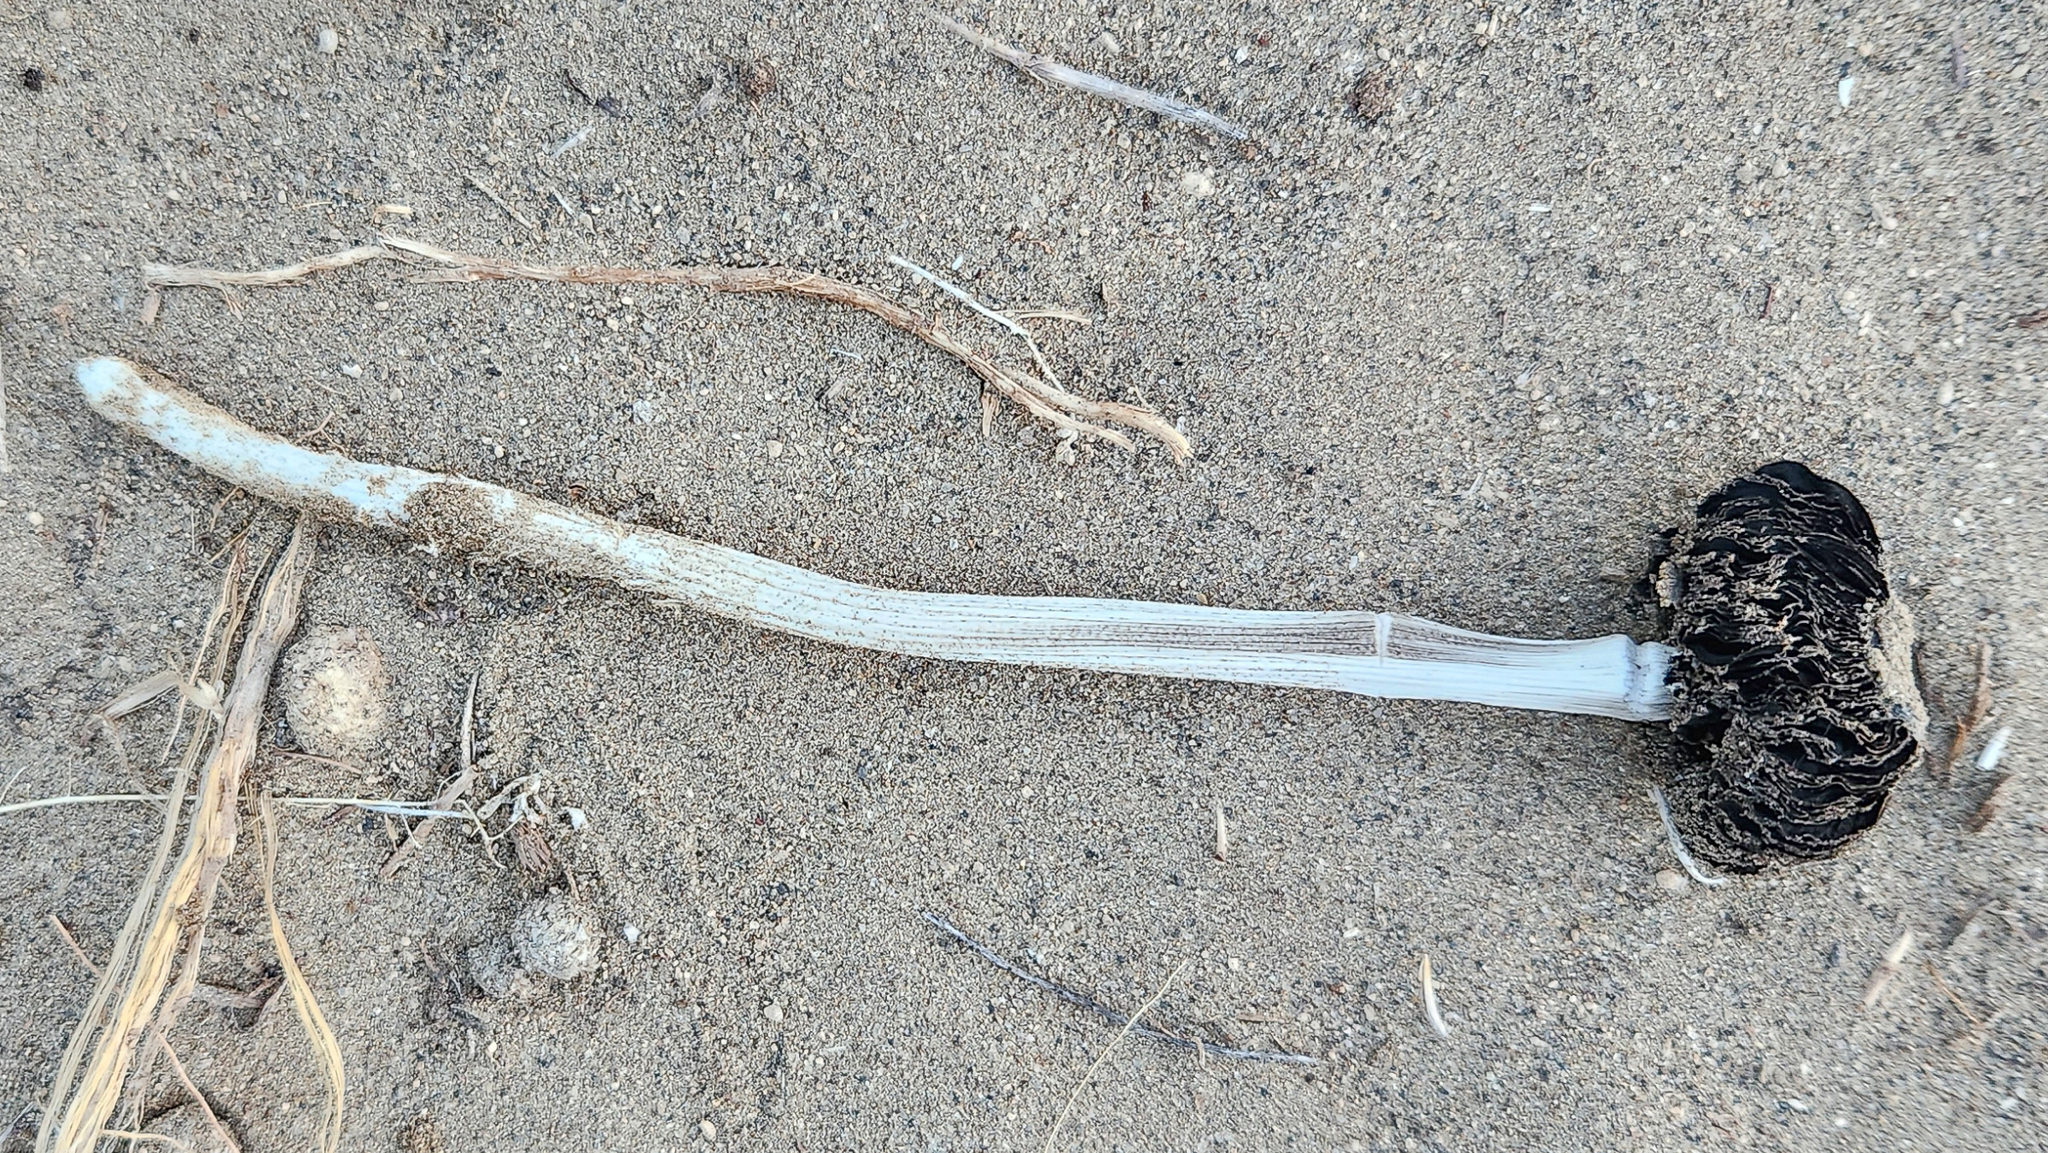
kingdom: Fungi
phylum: Basidiomycota
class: Agaricomycetes
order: Agaricales
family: Agaricaceae
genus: Battarrea
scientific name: Battarrea phalloides
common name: Sandy stiltball
